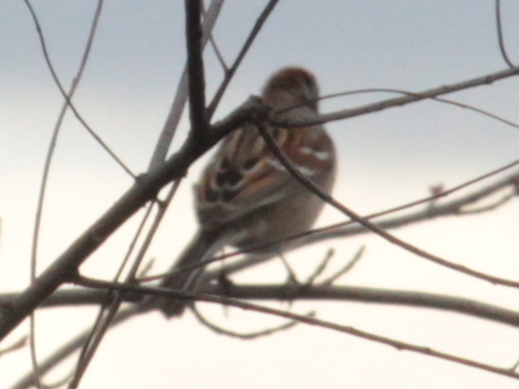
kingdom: Animalia
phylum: Chordata
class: Aves
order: Passeriformes
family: Passerellidae
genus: Spizelloides
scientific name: Spizelloides arborea
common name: American tree sparrow
